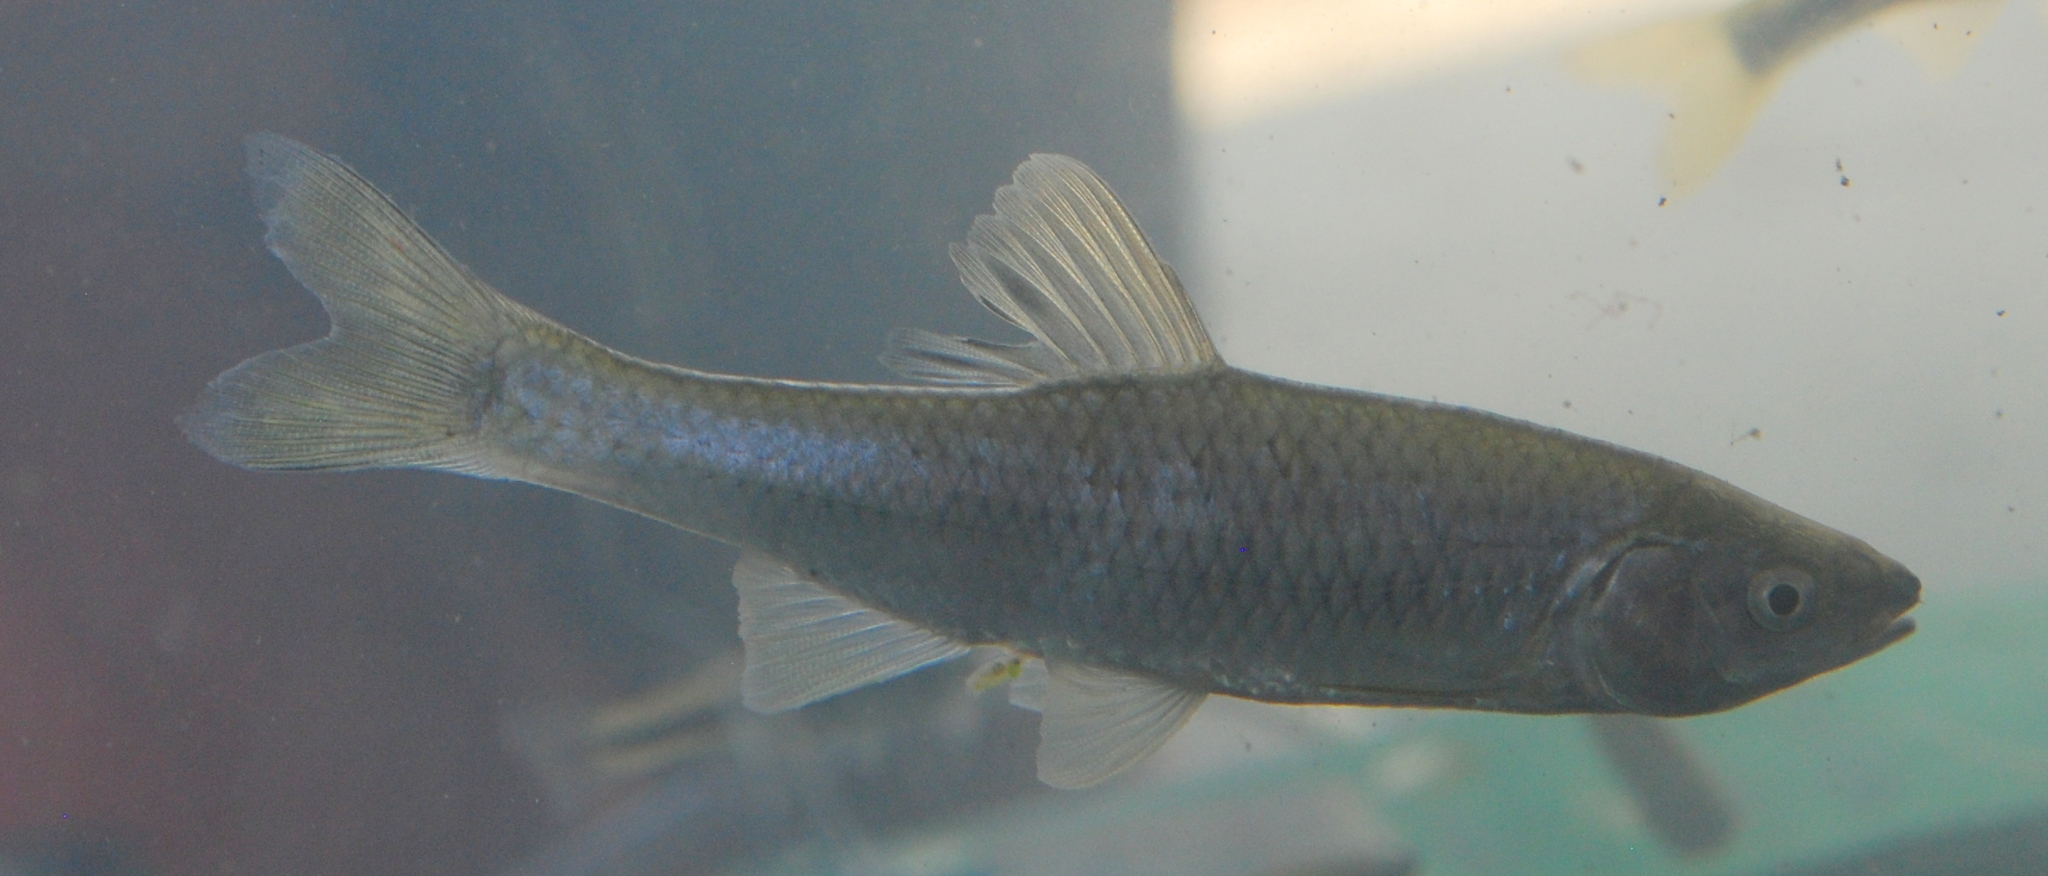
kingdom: Animalia
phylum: Chordata
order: Cypriniformes
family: Cyprinidae
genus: Cyprinella
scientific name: Cyprinella spiloptera
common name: Spotfin shiner
